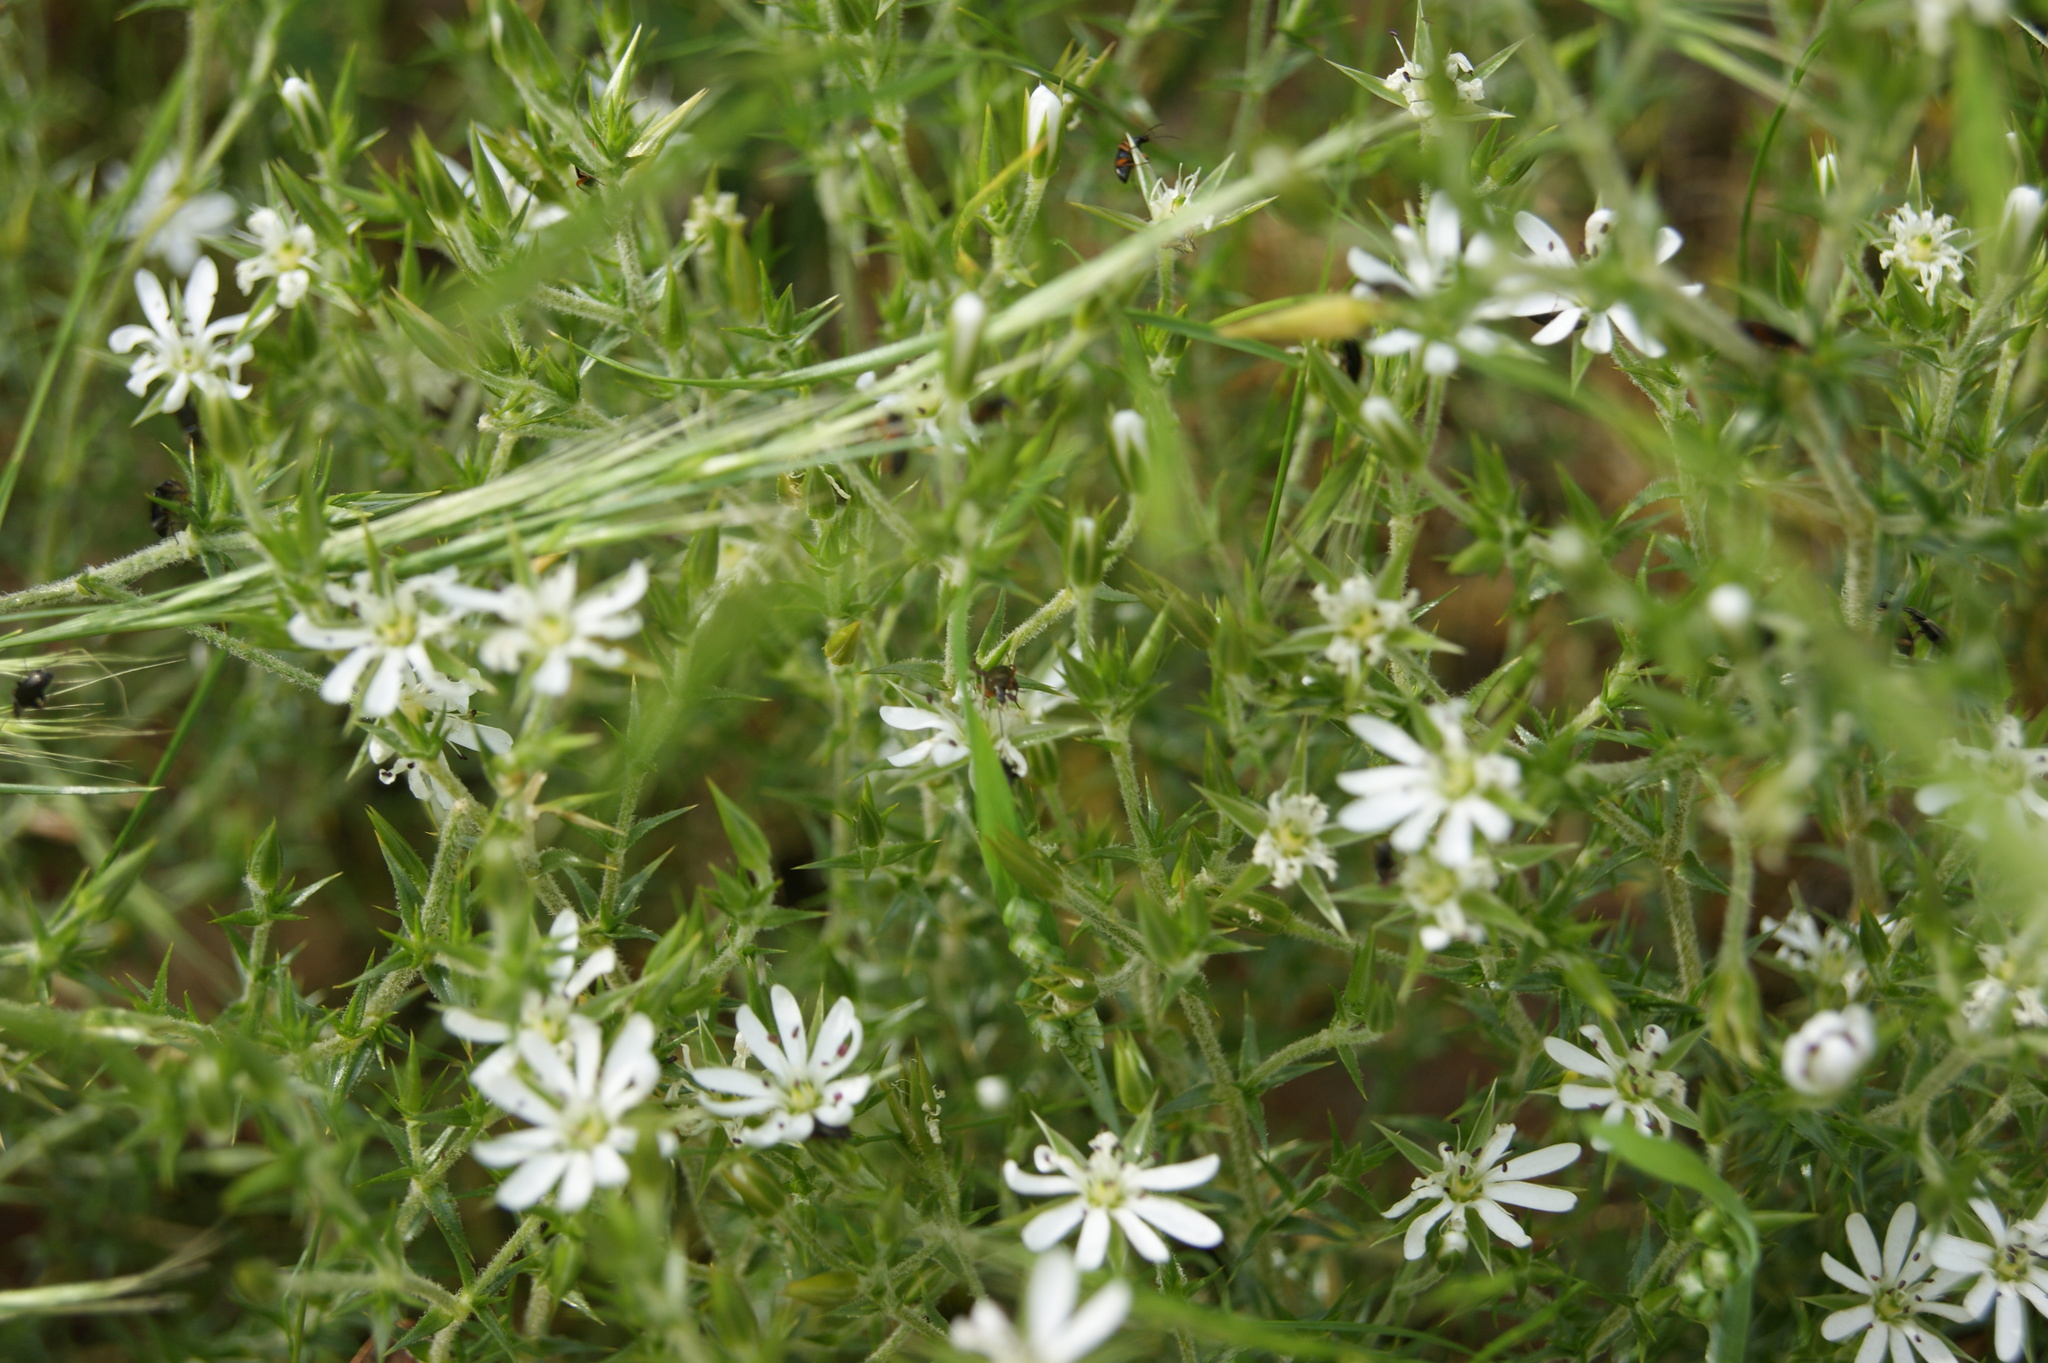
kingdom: Plantae
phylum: Tracheophyta
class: Magnoliopsida
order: Caryophyllales
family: Caryophyllaceae
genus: Stellaria
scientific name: Stellaria pungens
